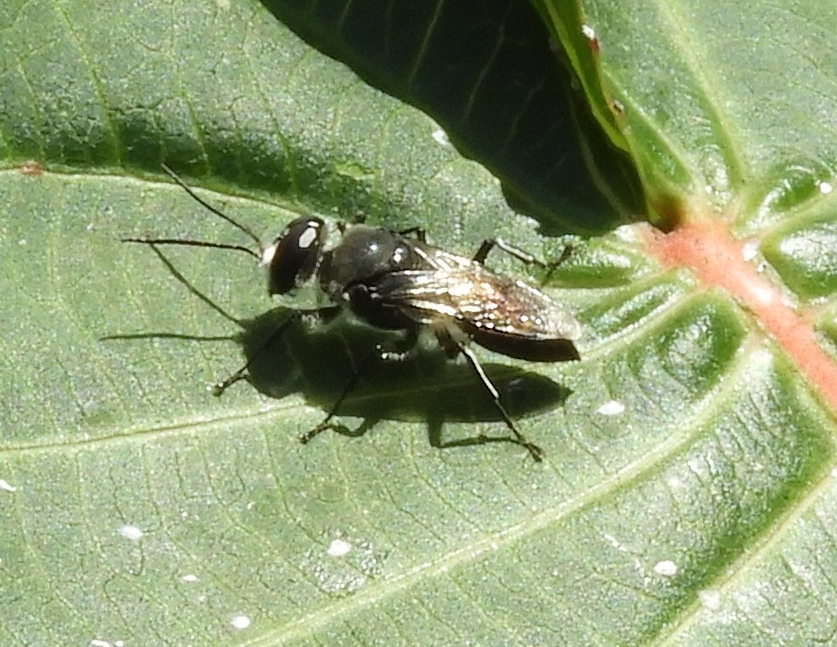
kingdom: Animalia
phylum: Arthropoda
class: Insecta
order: Hymenoptera
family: Crabronidae
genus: Astata
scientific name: Astata
